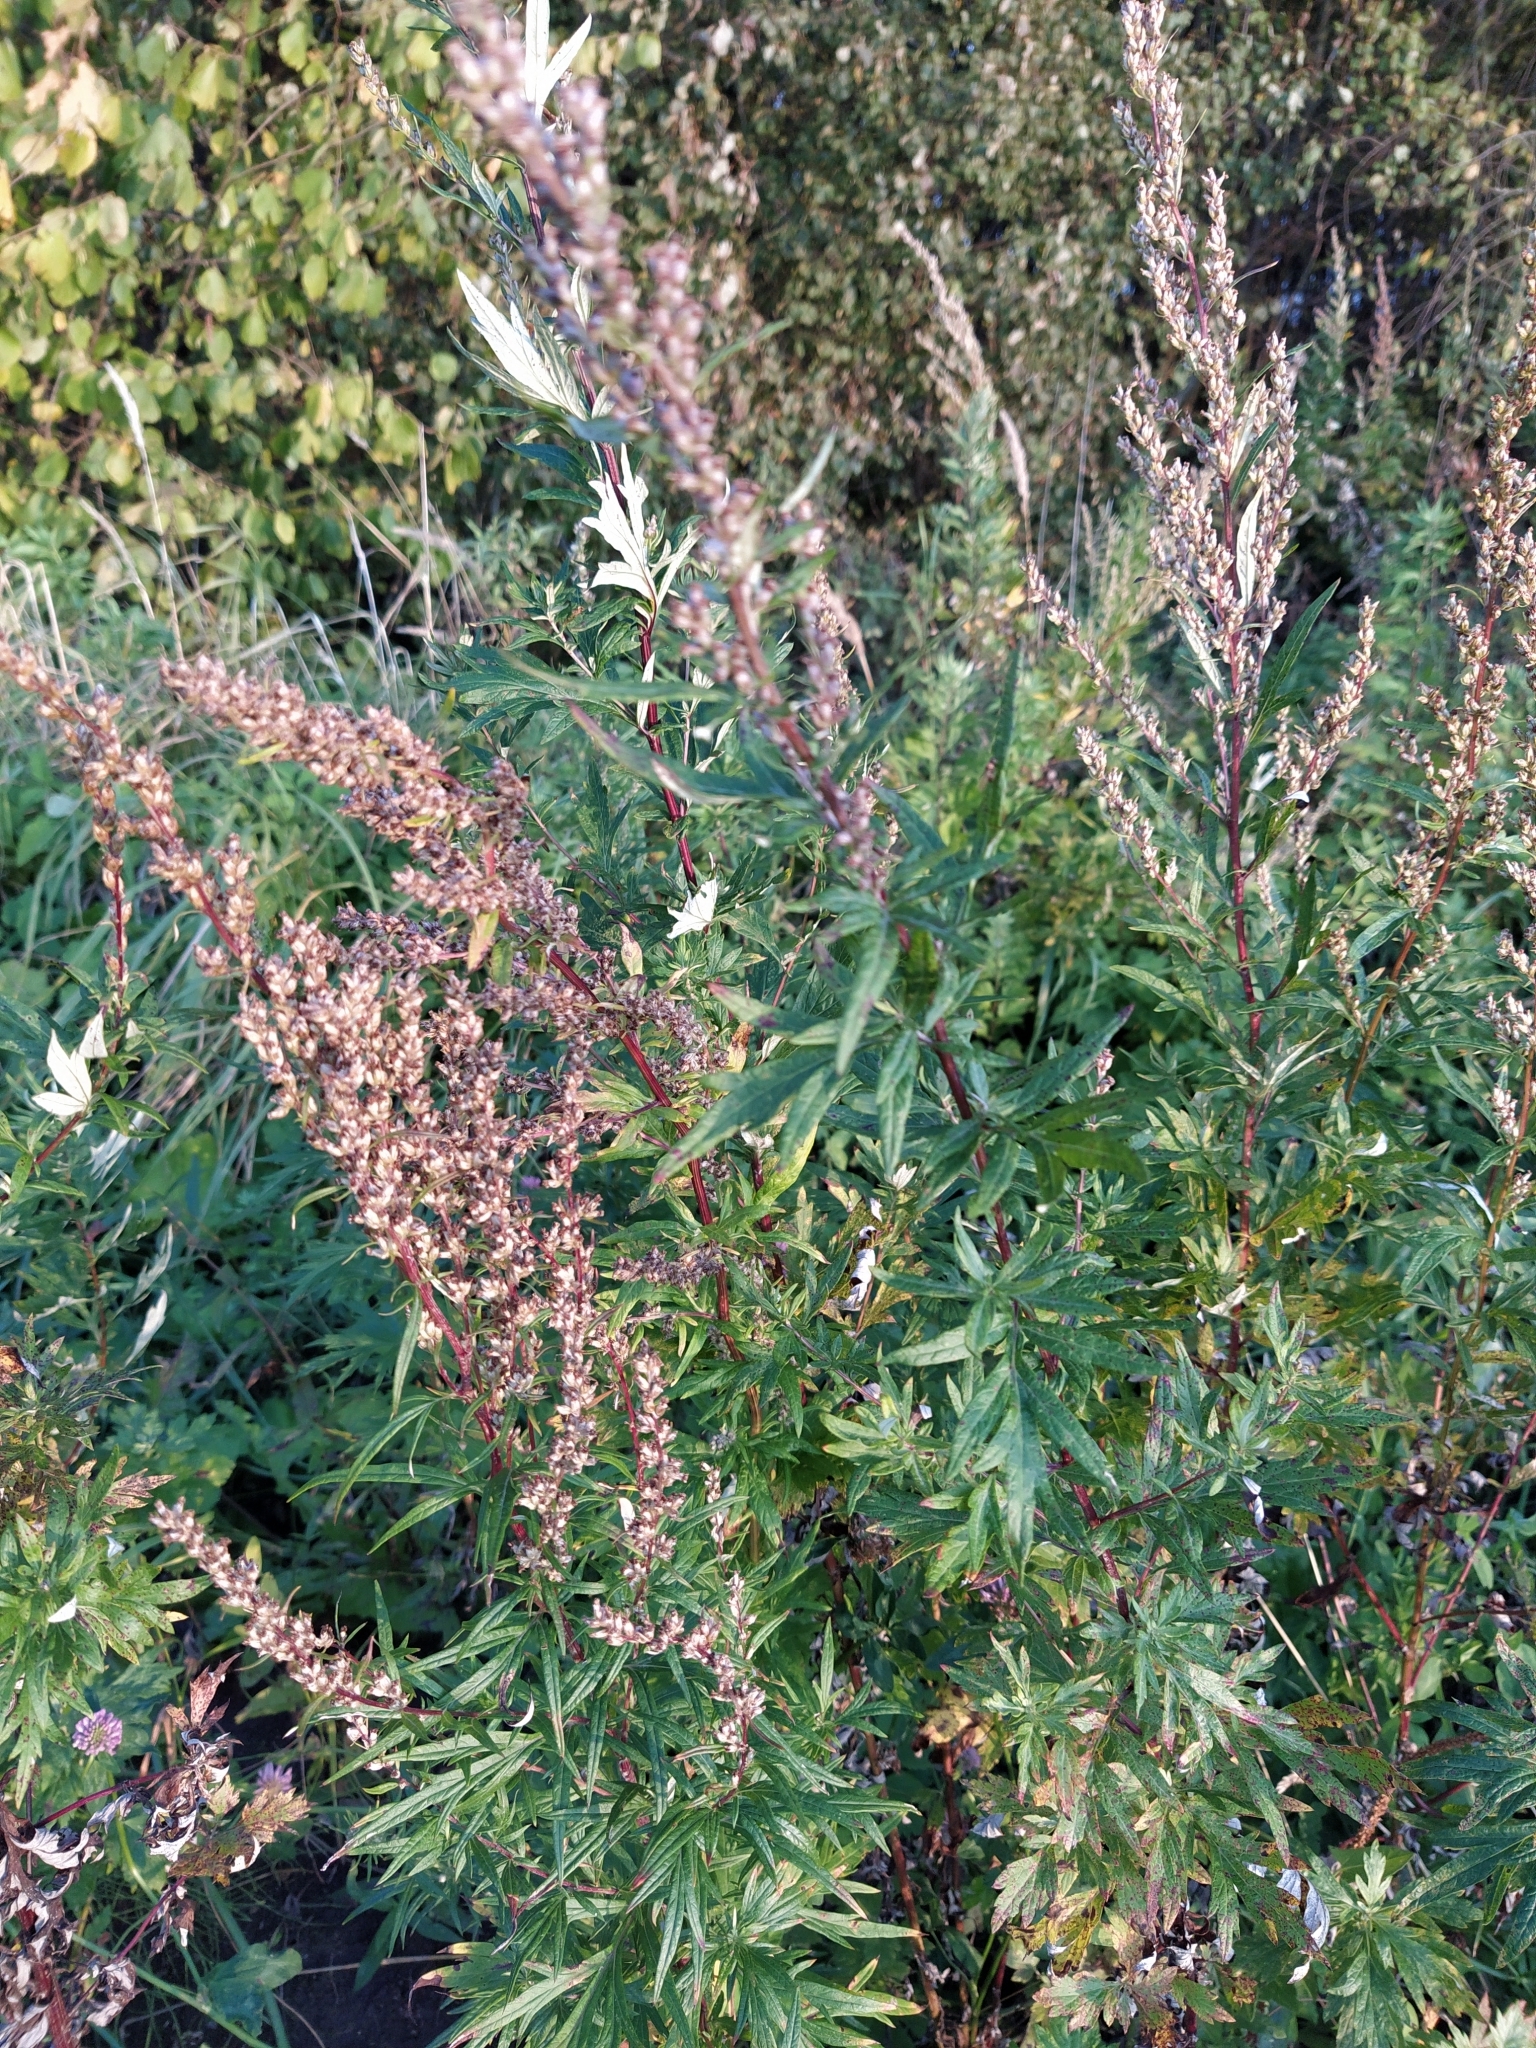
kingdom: Plantae
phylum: Tracheophyta
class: Magnoliopsida
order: Asterales
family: Asteraceae
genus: Artemisia
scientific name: Artemisia vulgaris
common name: Mugwort
